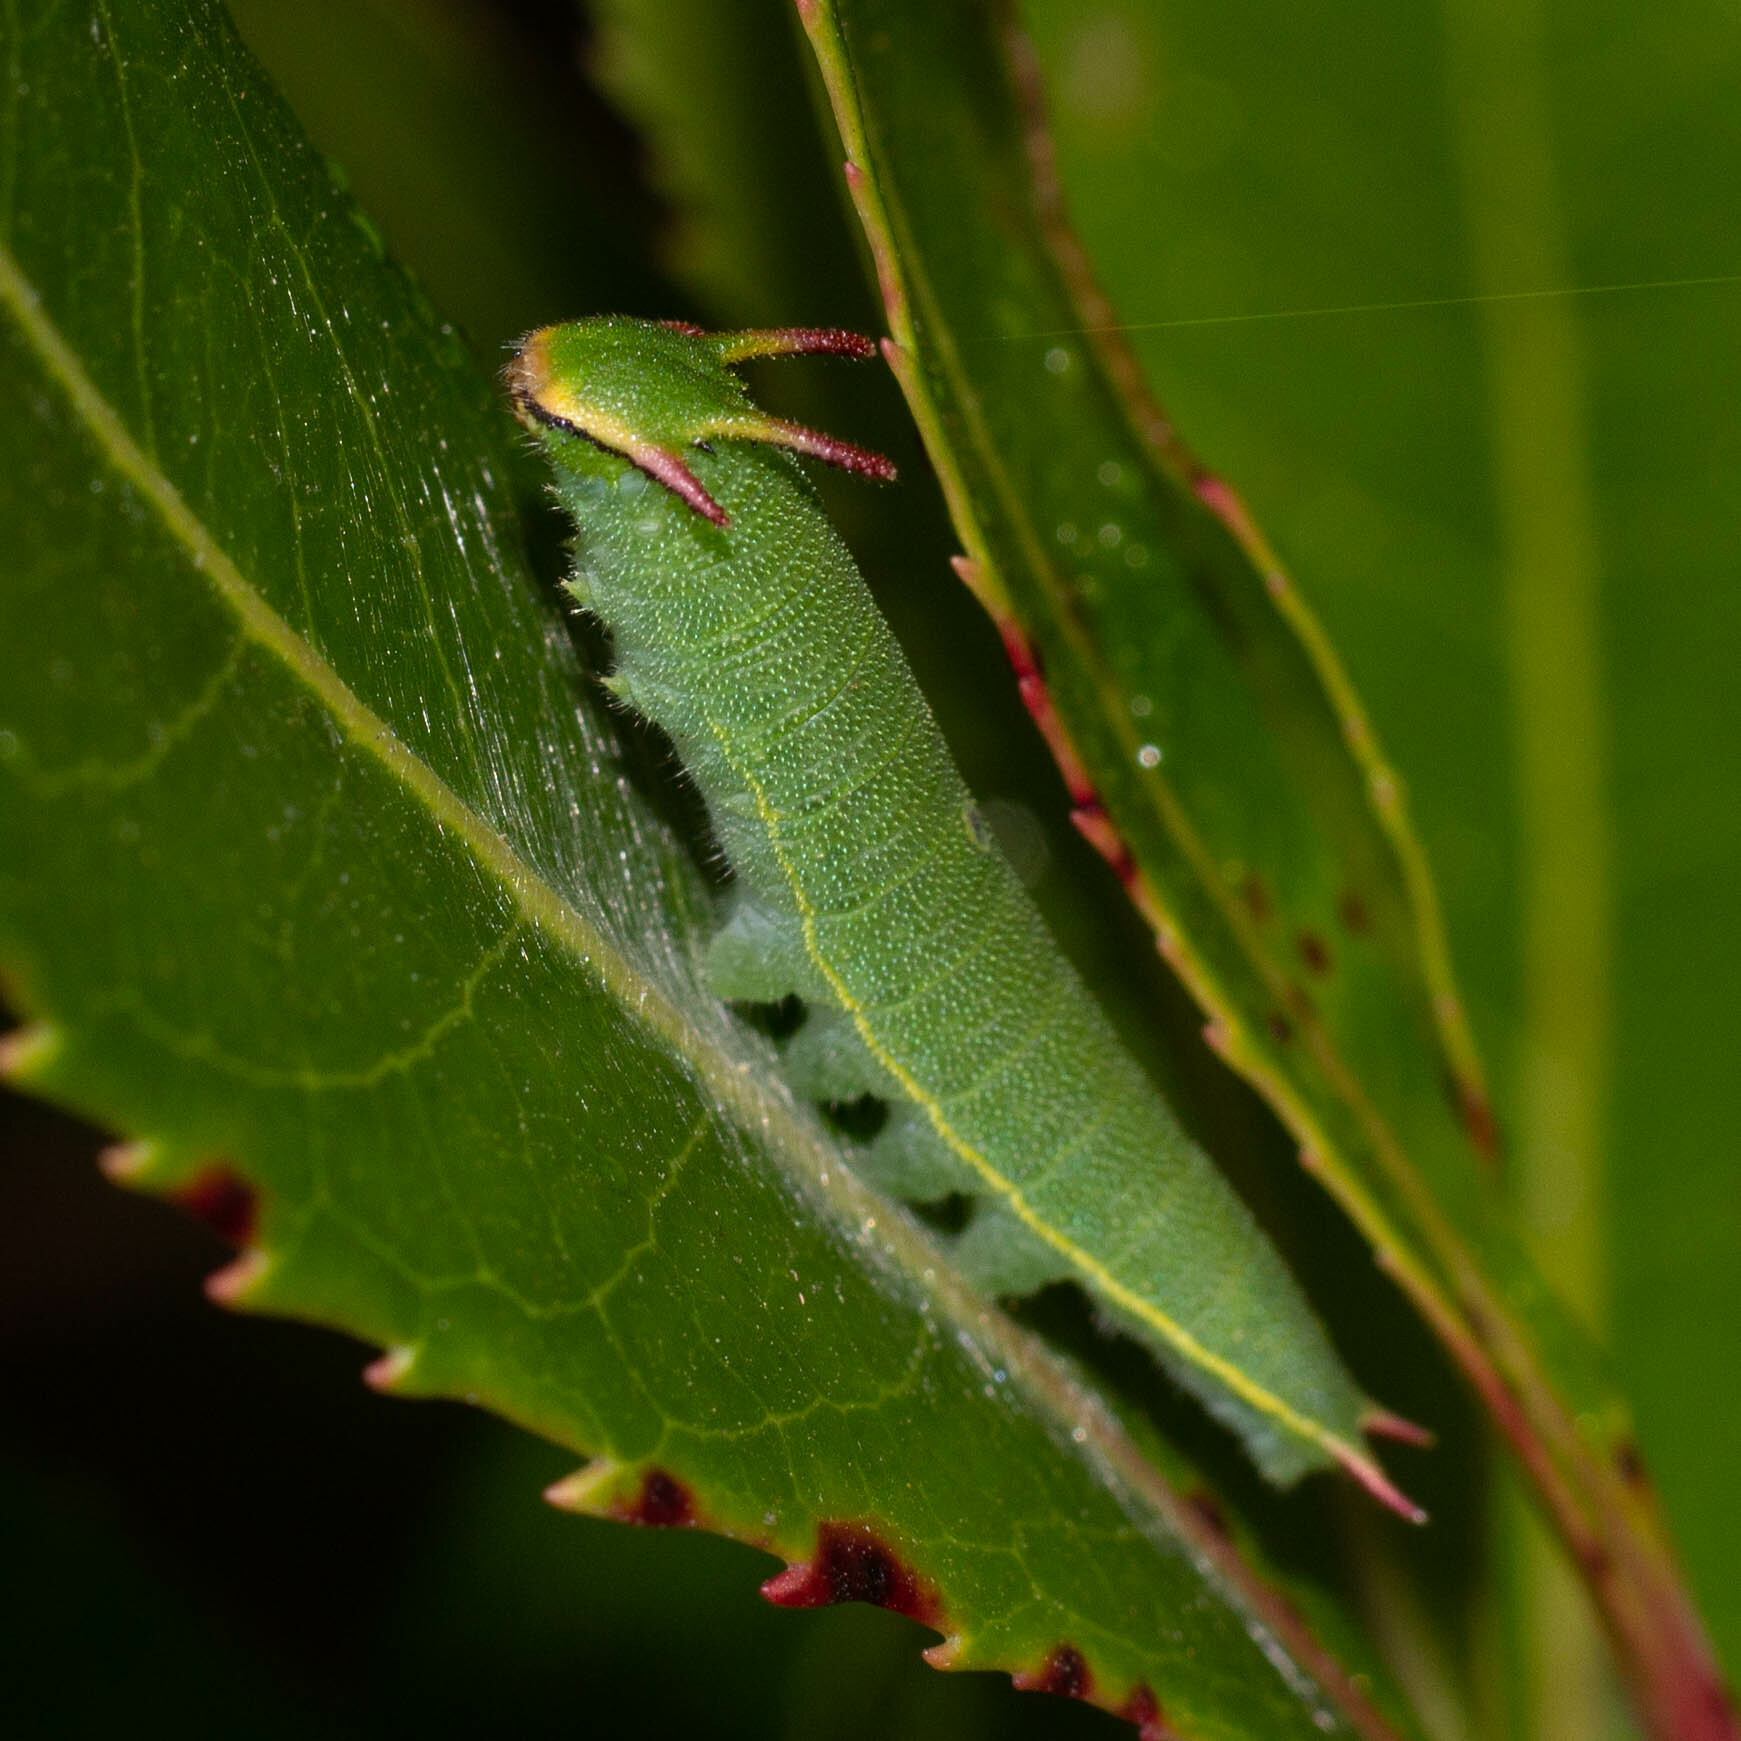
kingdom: Animalia
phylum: Arthropoda
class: Insecta
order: Lepidoptera
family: Nymphalidae
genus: Charaxes
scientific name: Charaxes jasius
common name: Two tailed pasha
